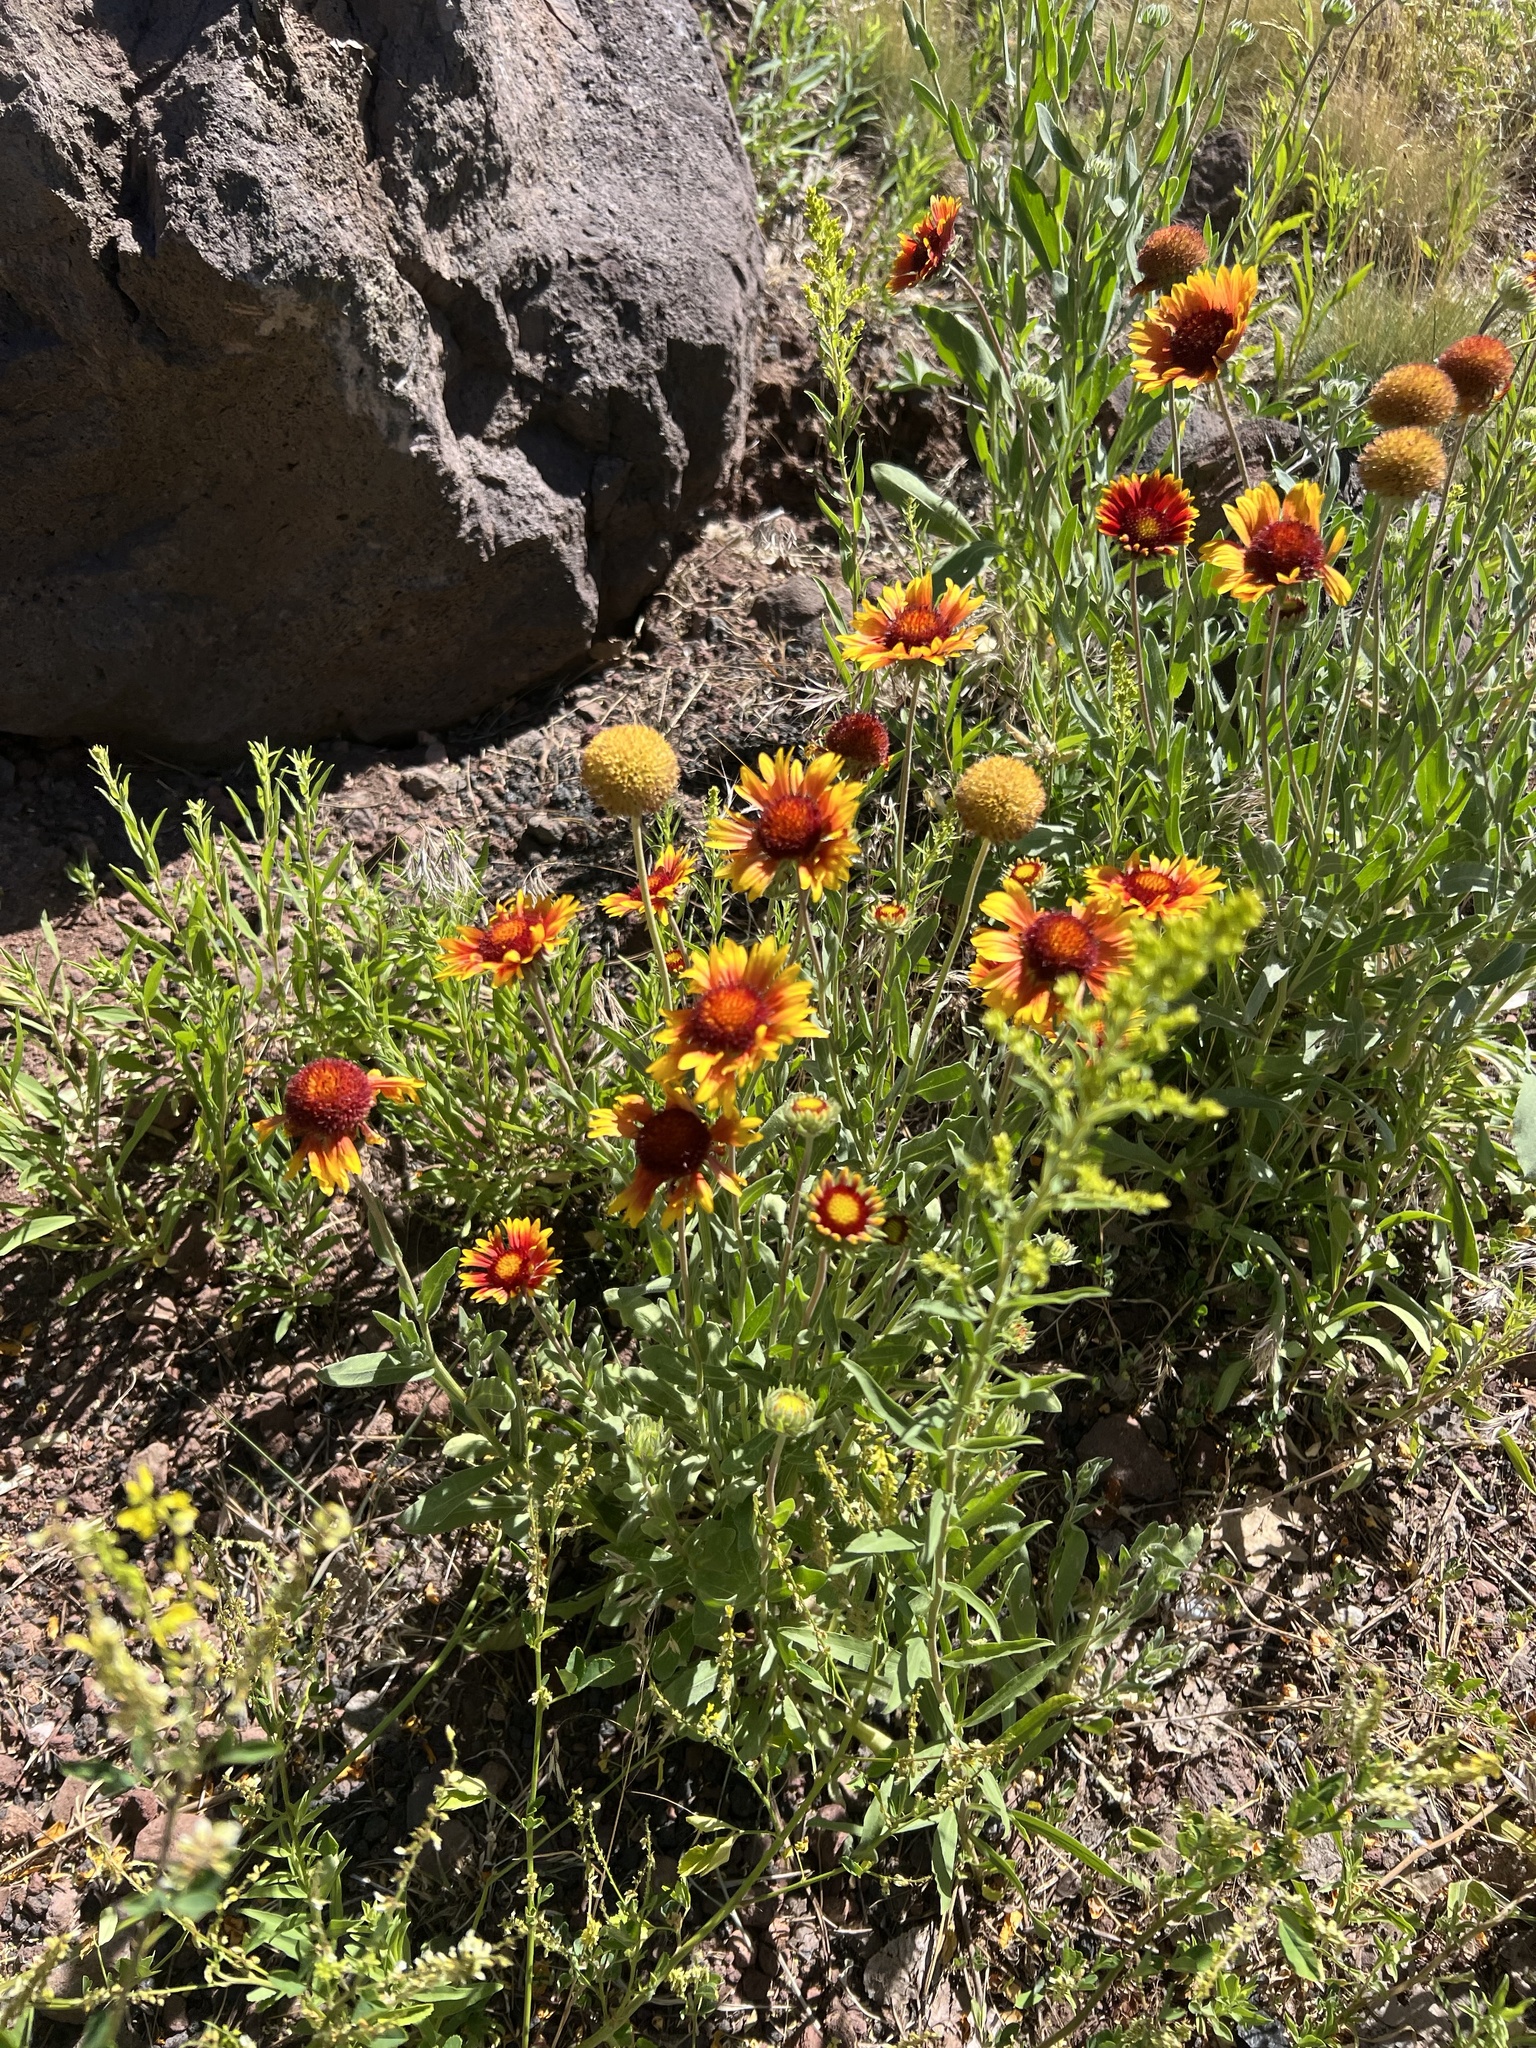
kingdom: Plantae
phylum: Tracheophyta
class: Magnoliopsida
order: Asterales
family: Asteraceae
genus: Gaillardia
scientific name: Gaillardia pinnatifida
